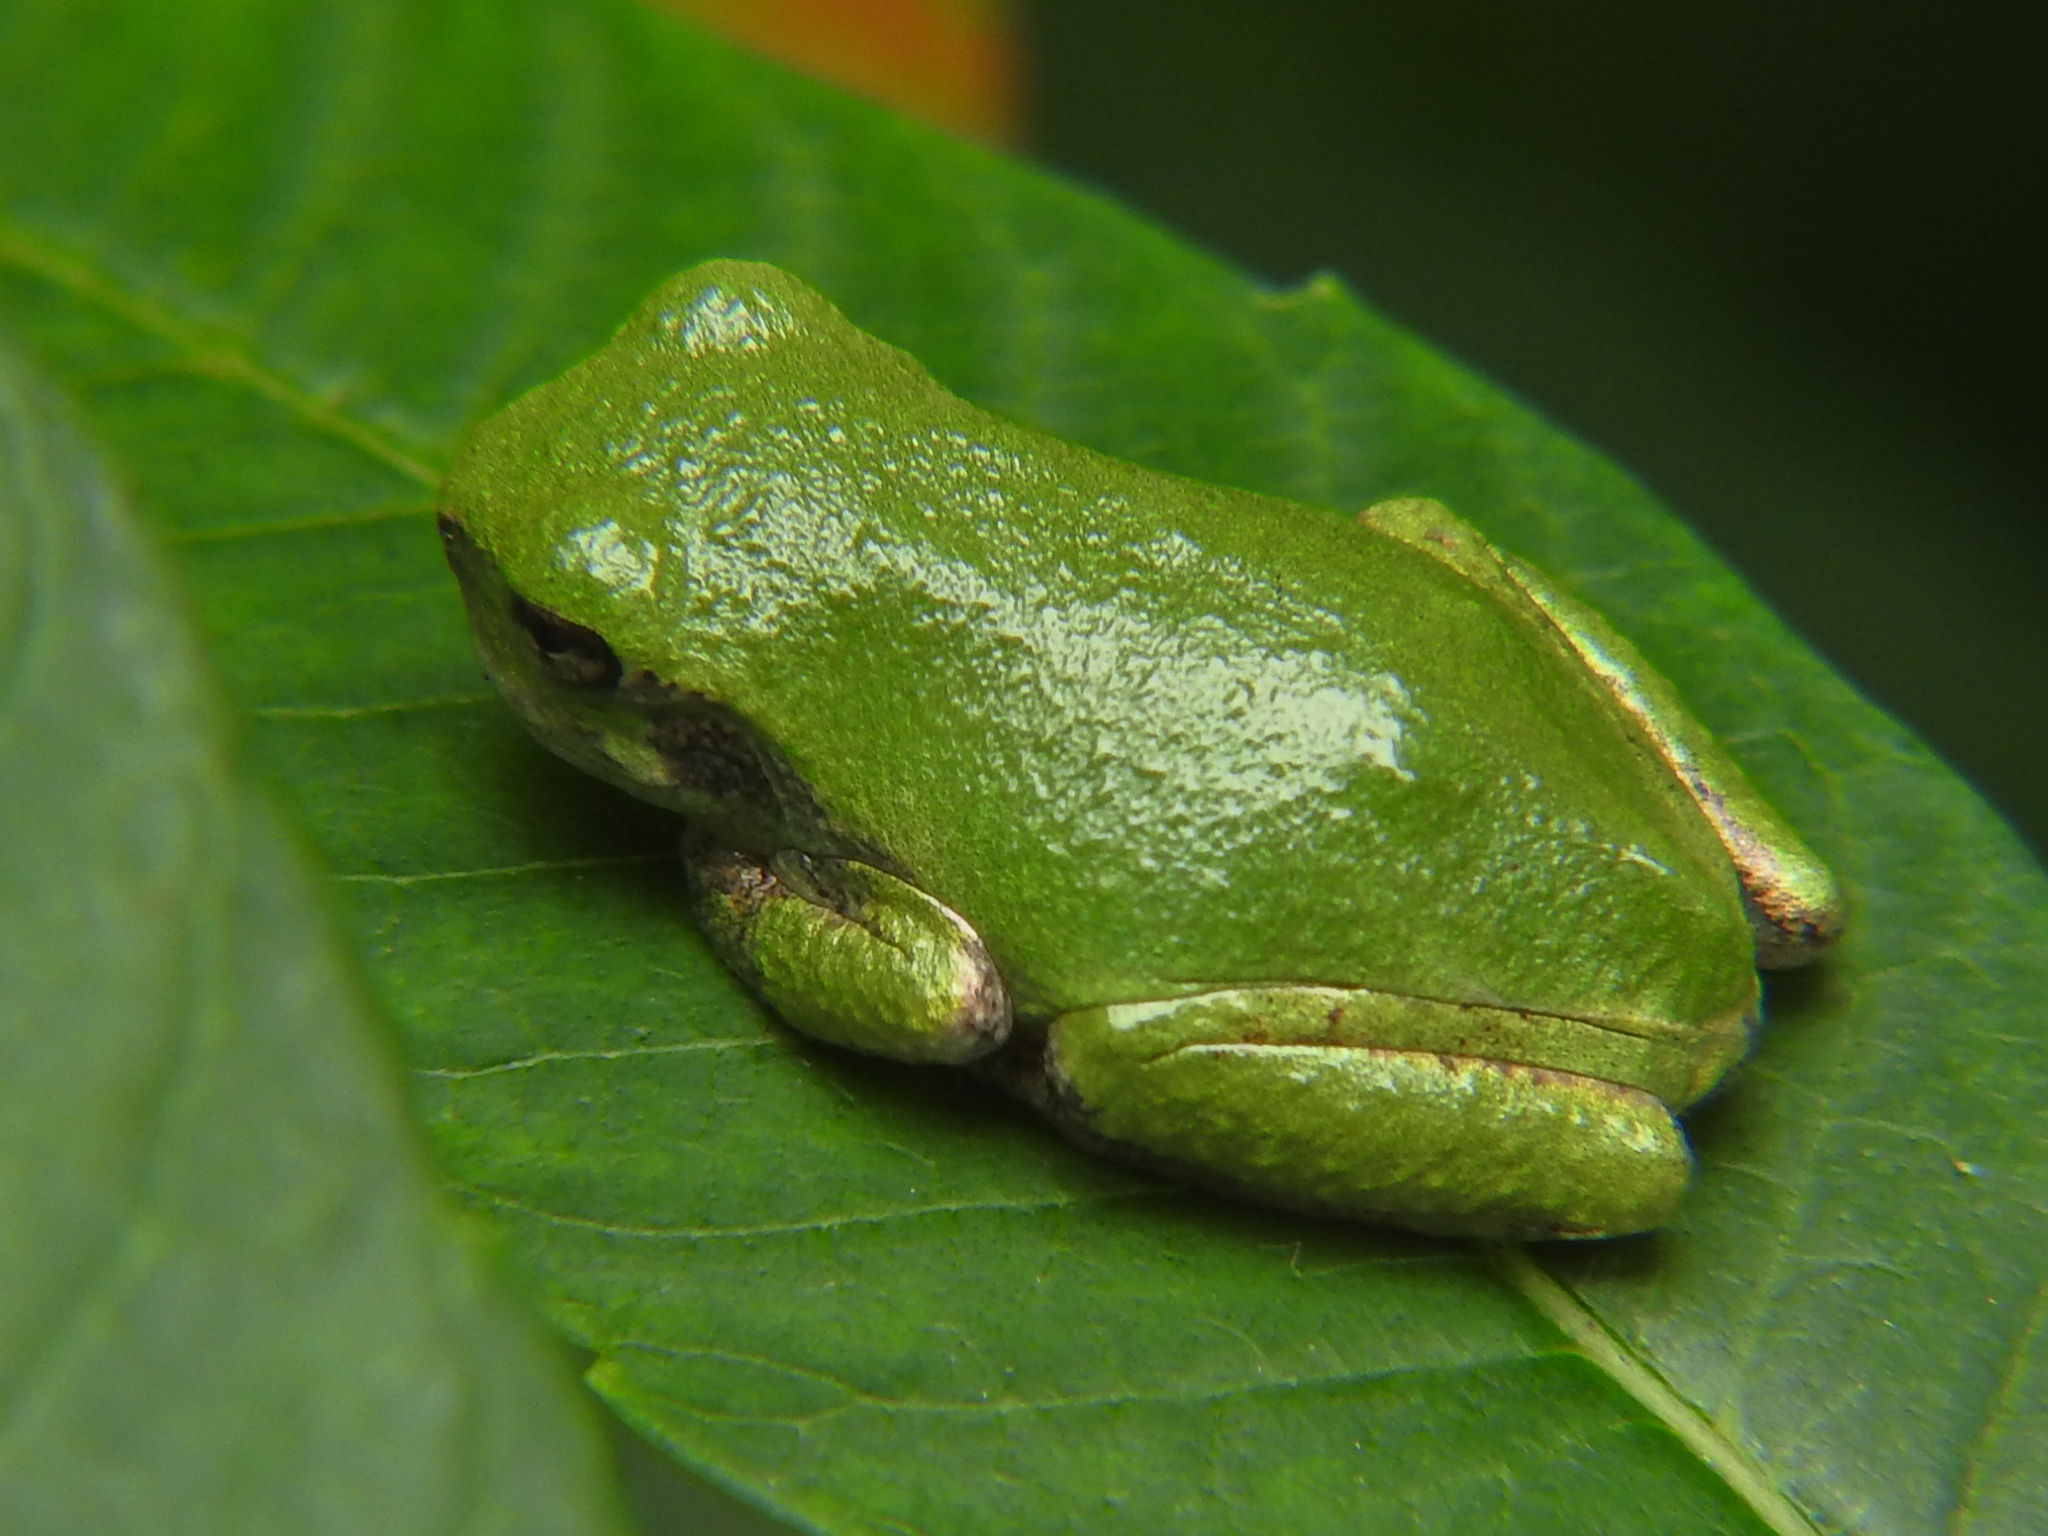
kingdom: Animalia
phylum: Chordata
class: Amphibia
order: Anura
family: Hylidae
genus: Dryophytes
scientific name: Dryophytes versicolor
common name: Gray treefrog
